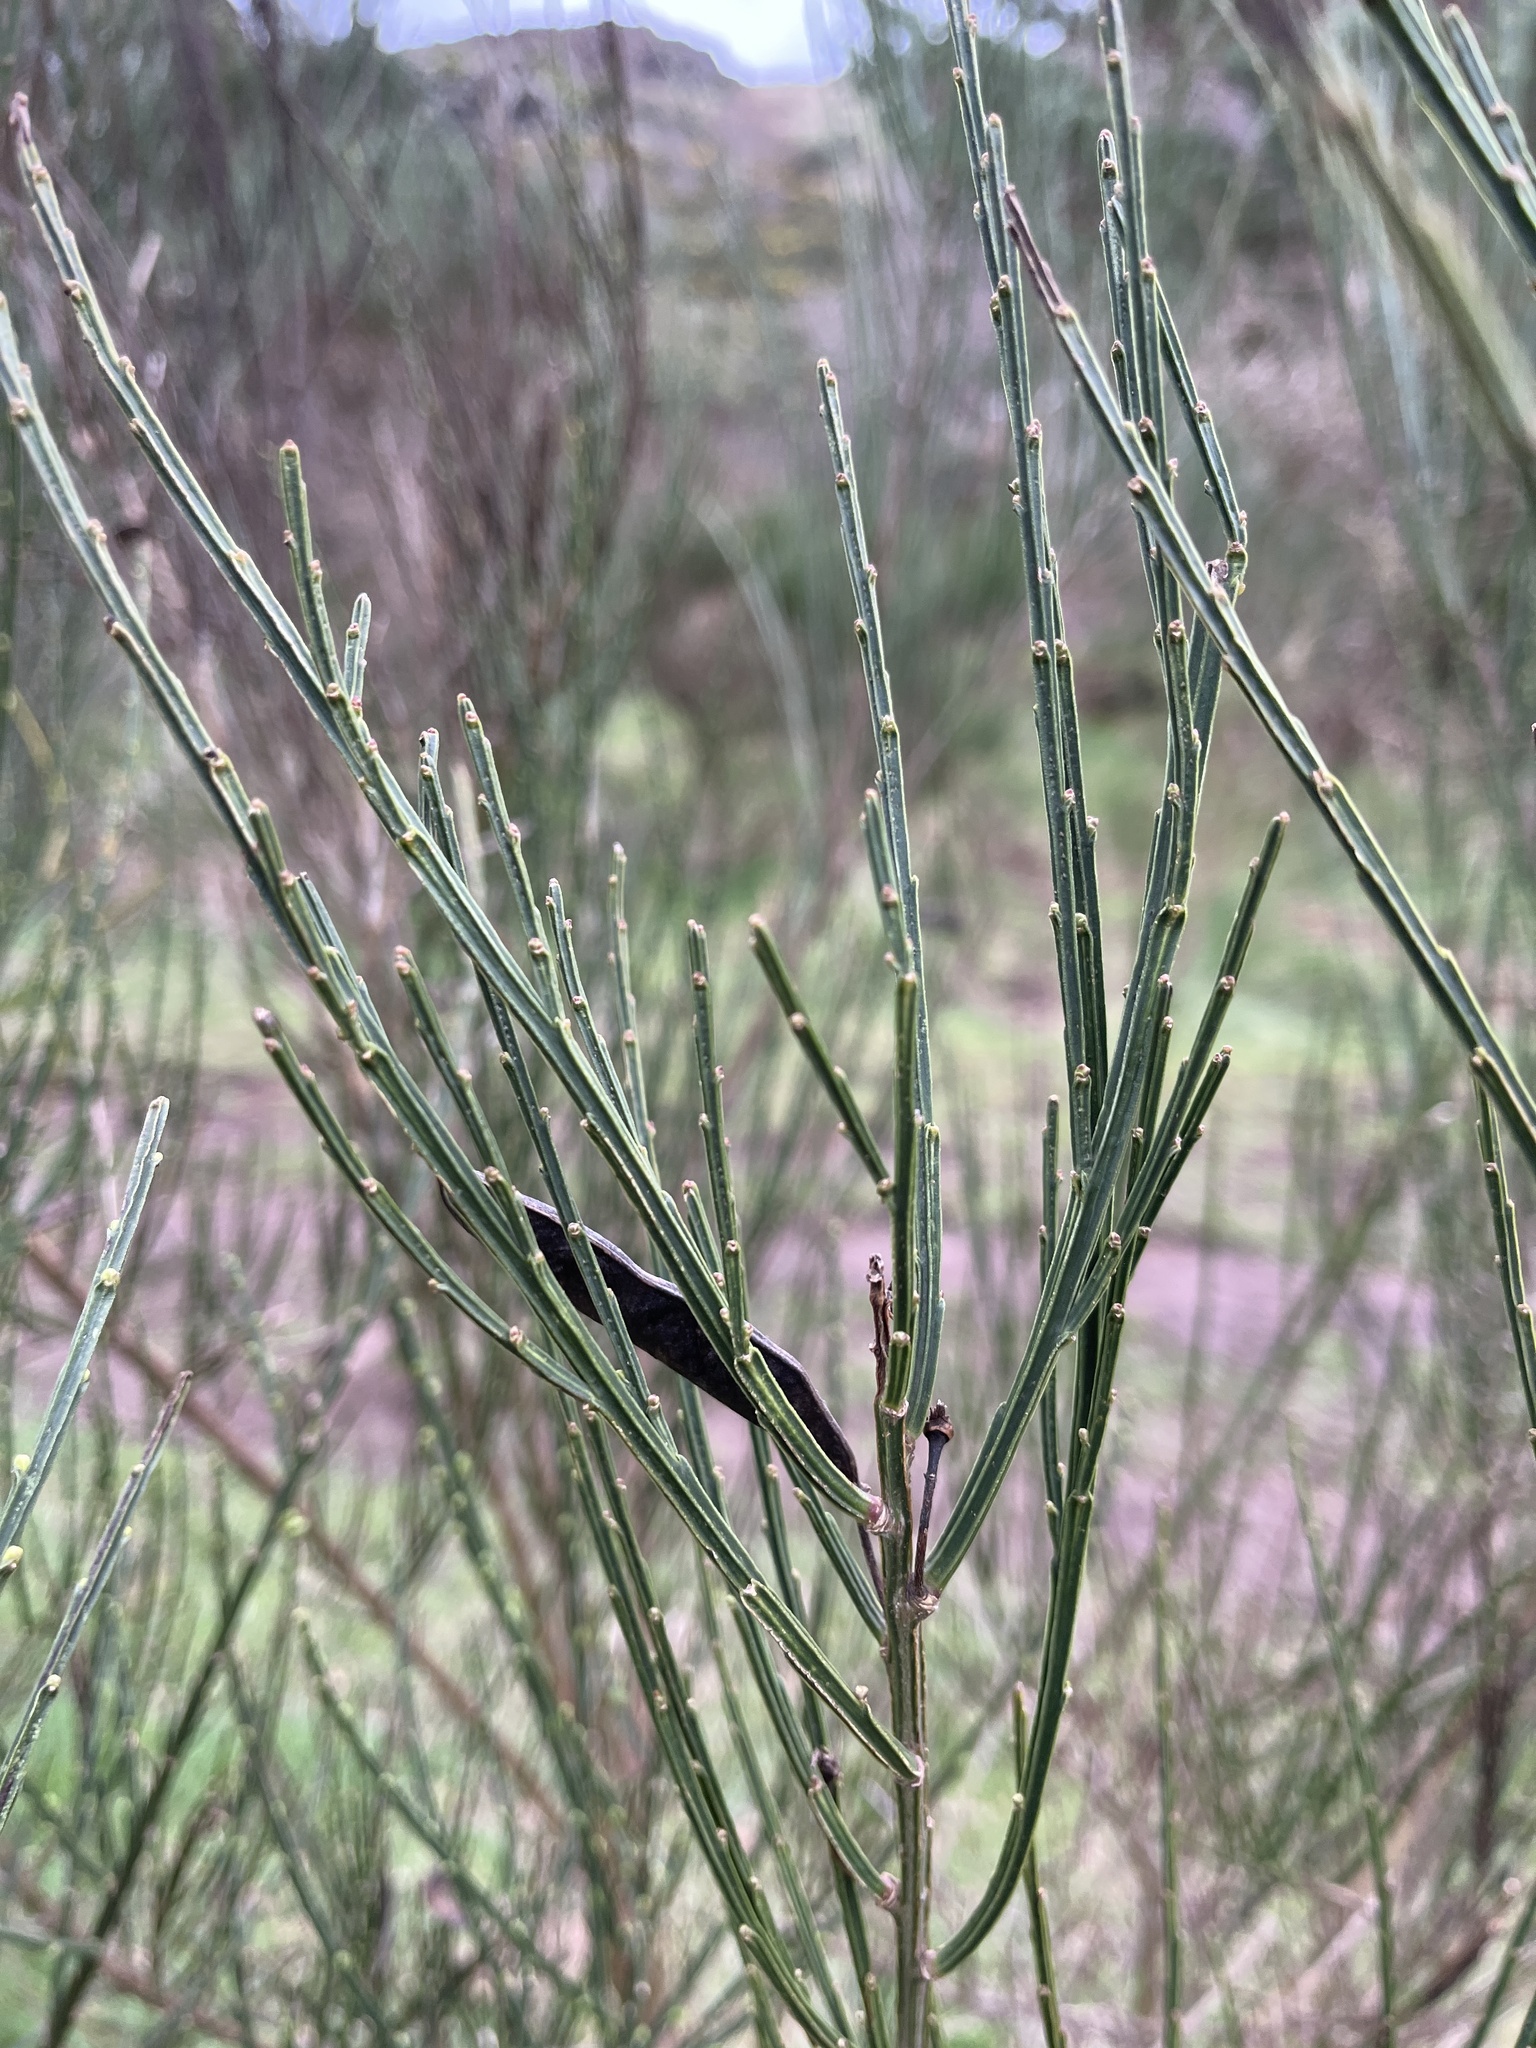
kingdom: Plantae
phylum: Tracheophyta
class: Magnoliopsida
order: Fabales
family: Fabaceae
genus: Cytisus
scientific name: Cytisus scoparius
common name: Scotch broom
